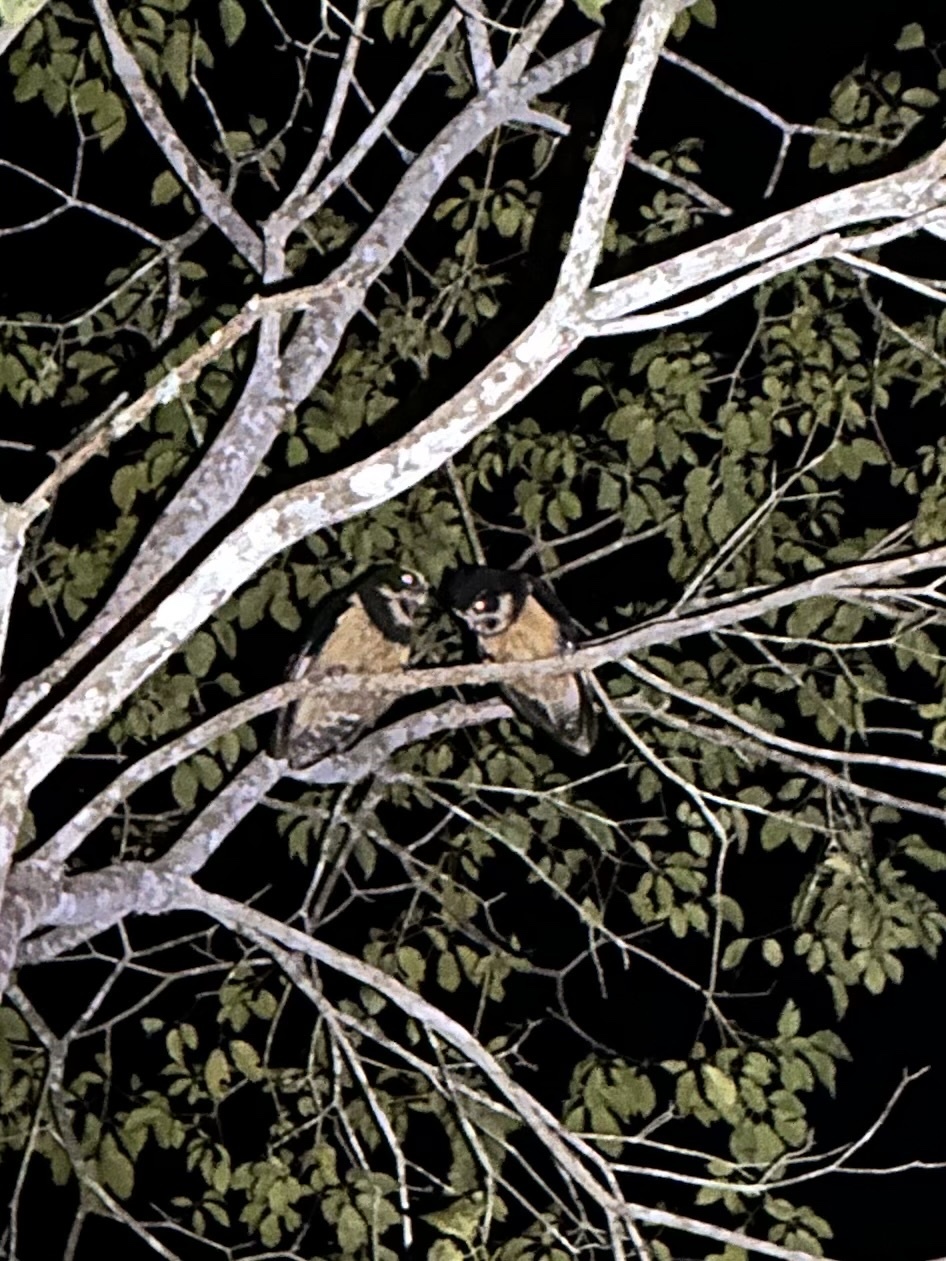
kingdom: Animalia
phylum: Chordata
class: Aves
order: Strigiformes
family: Strigidae
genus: Pulsatrix
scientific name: Pulsatrix perspicillata
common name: Spectacled owl
